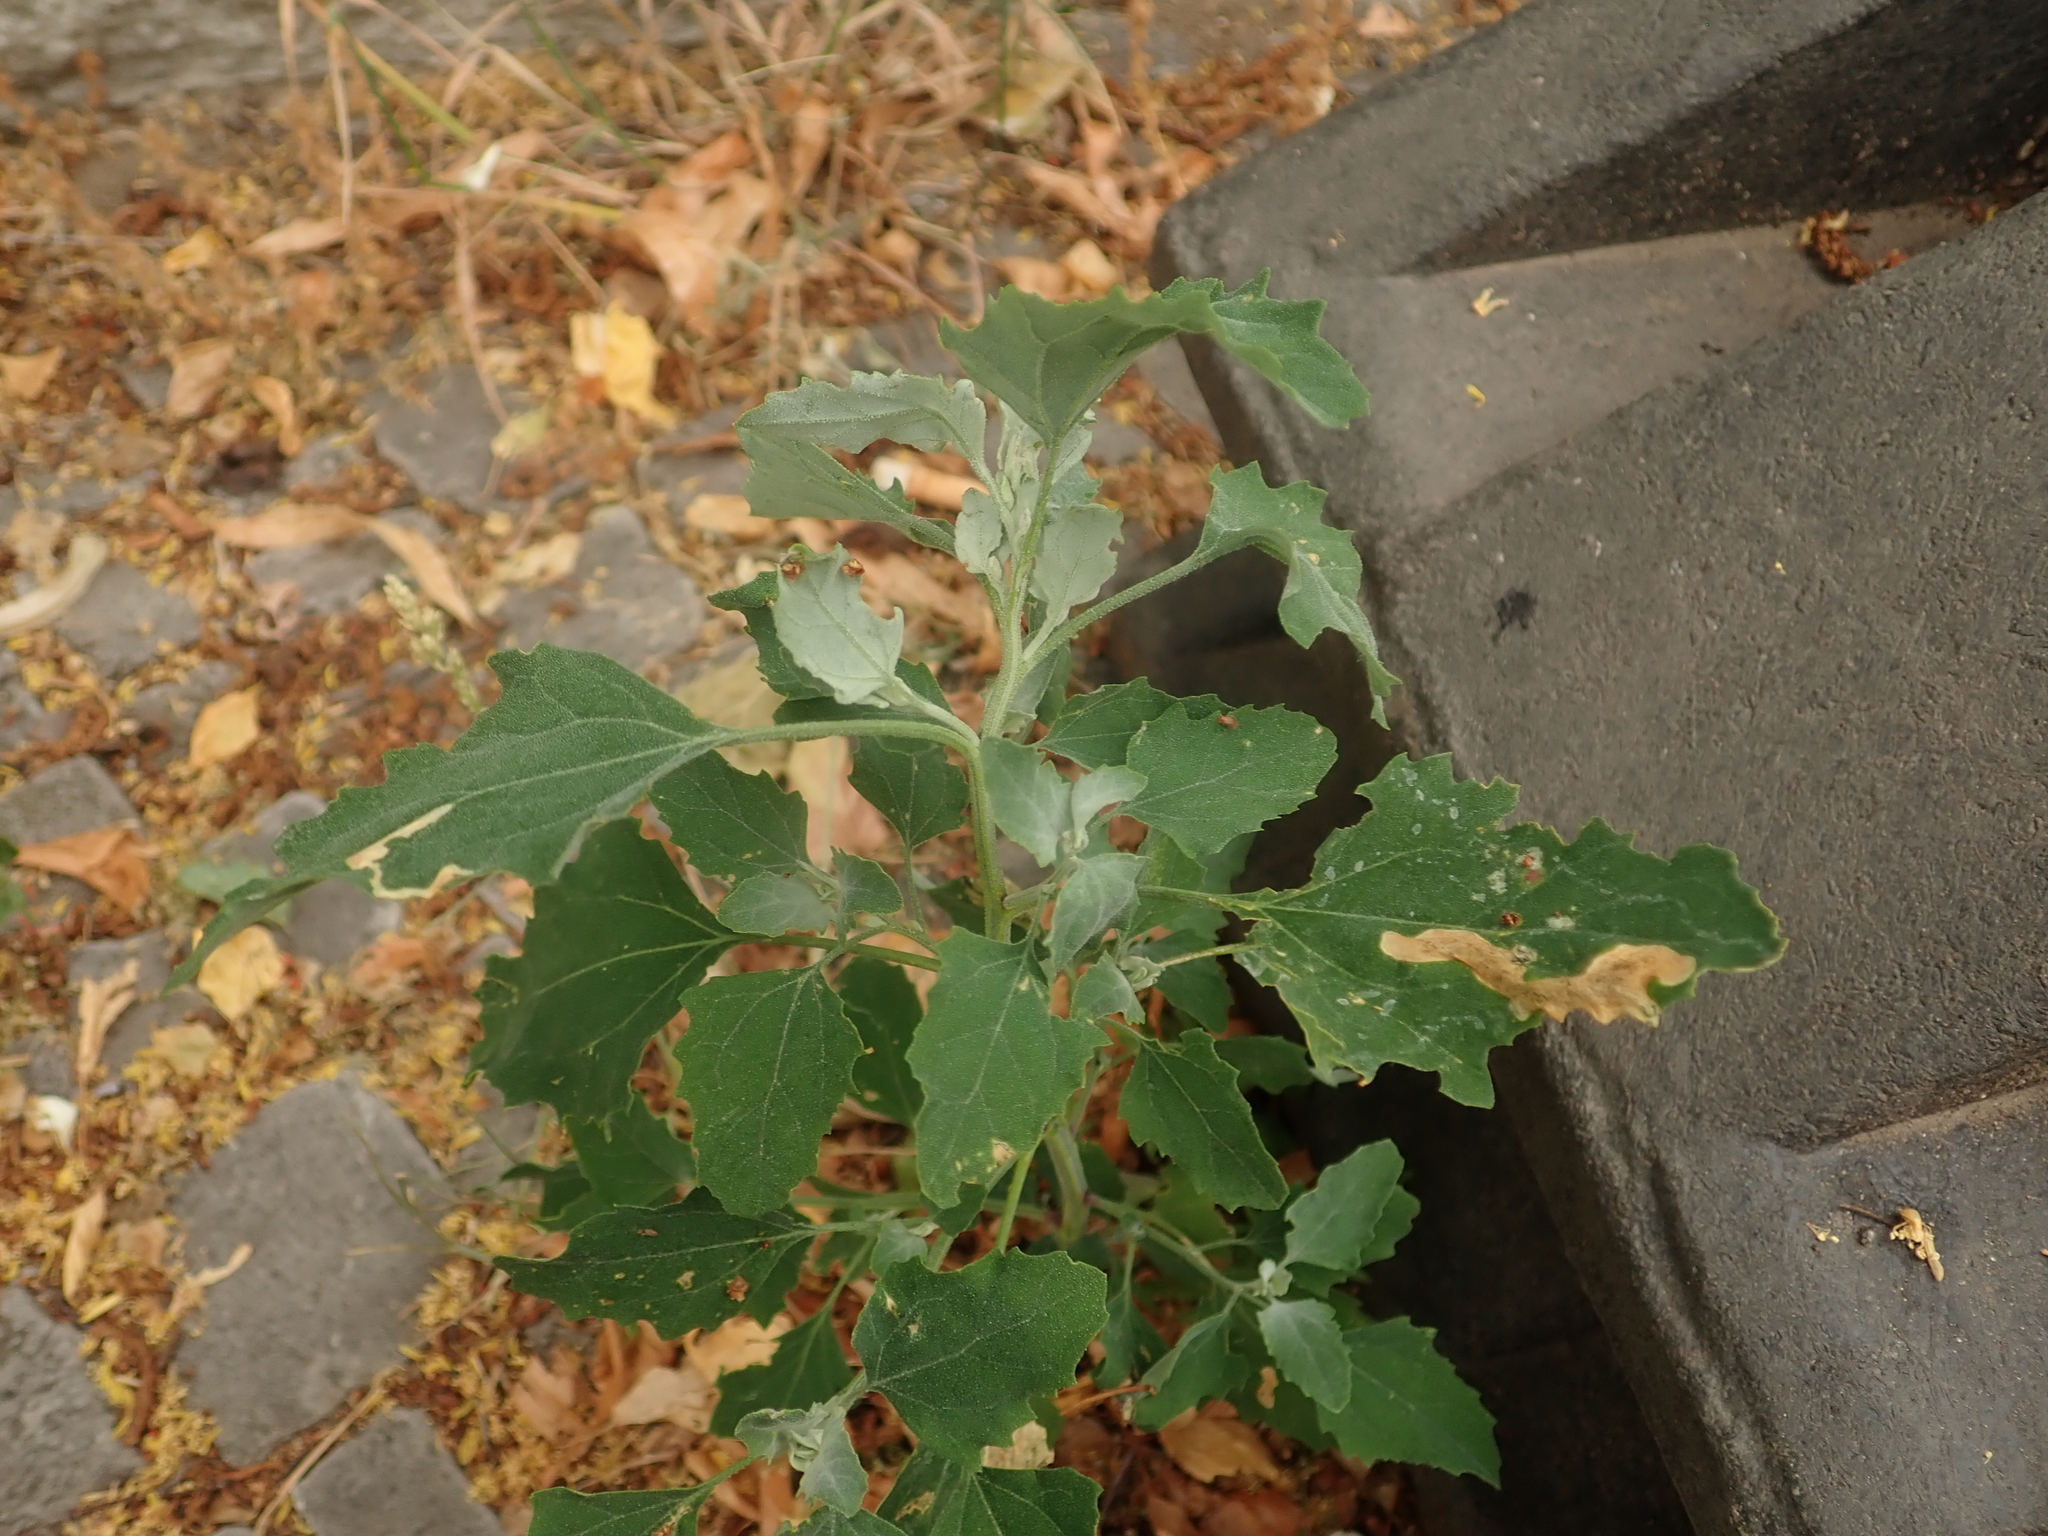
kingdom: Plantae
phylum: Tracheophyta
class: Magnoliopsida
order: Caryophyllales
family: Amaranthaceae
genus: Chenopodium
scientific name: Chenopodium album
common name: Fat-hen
